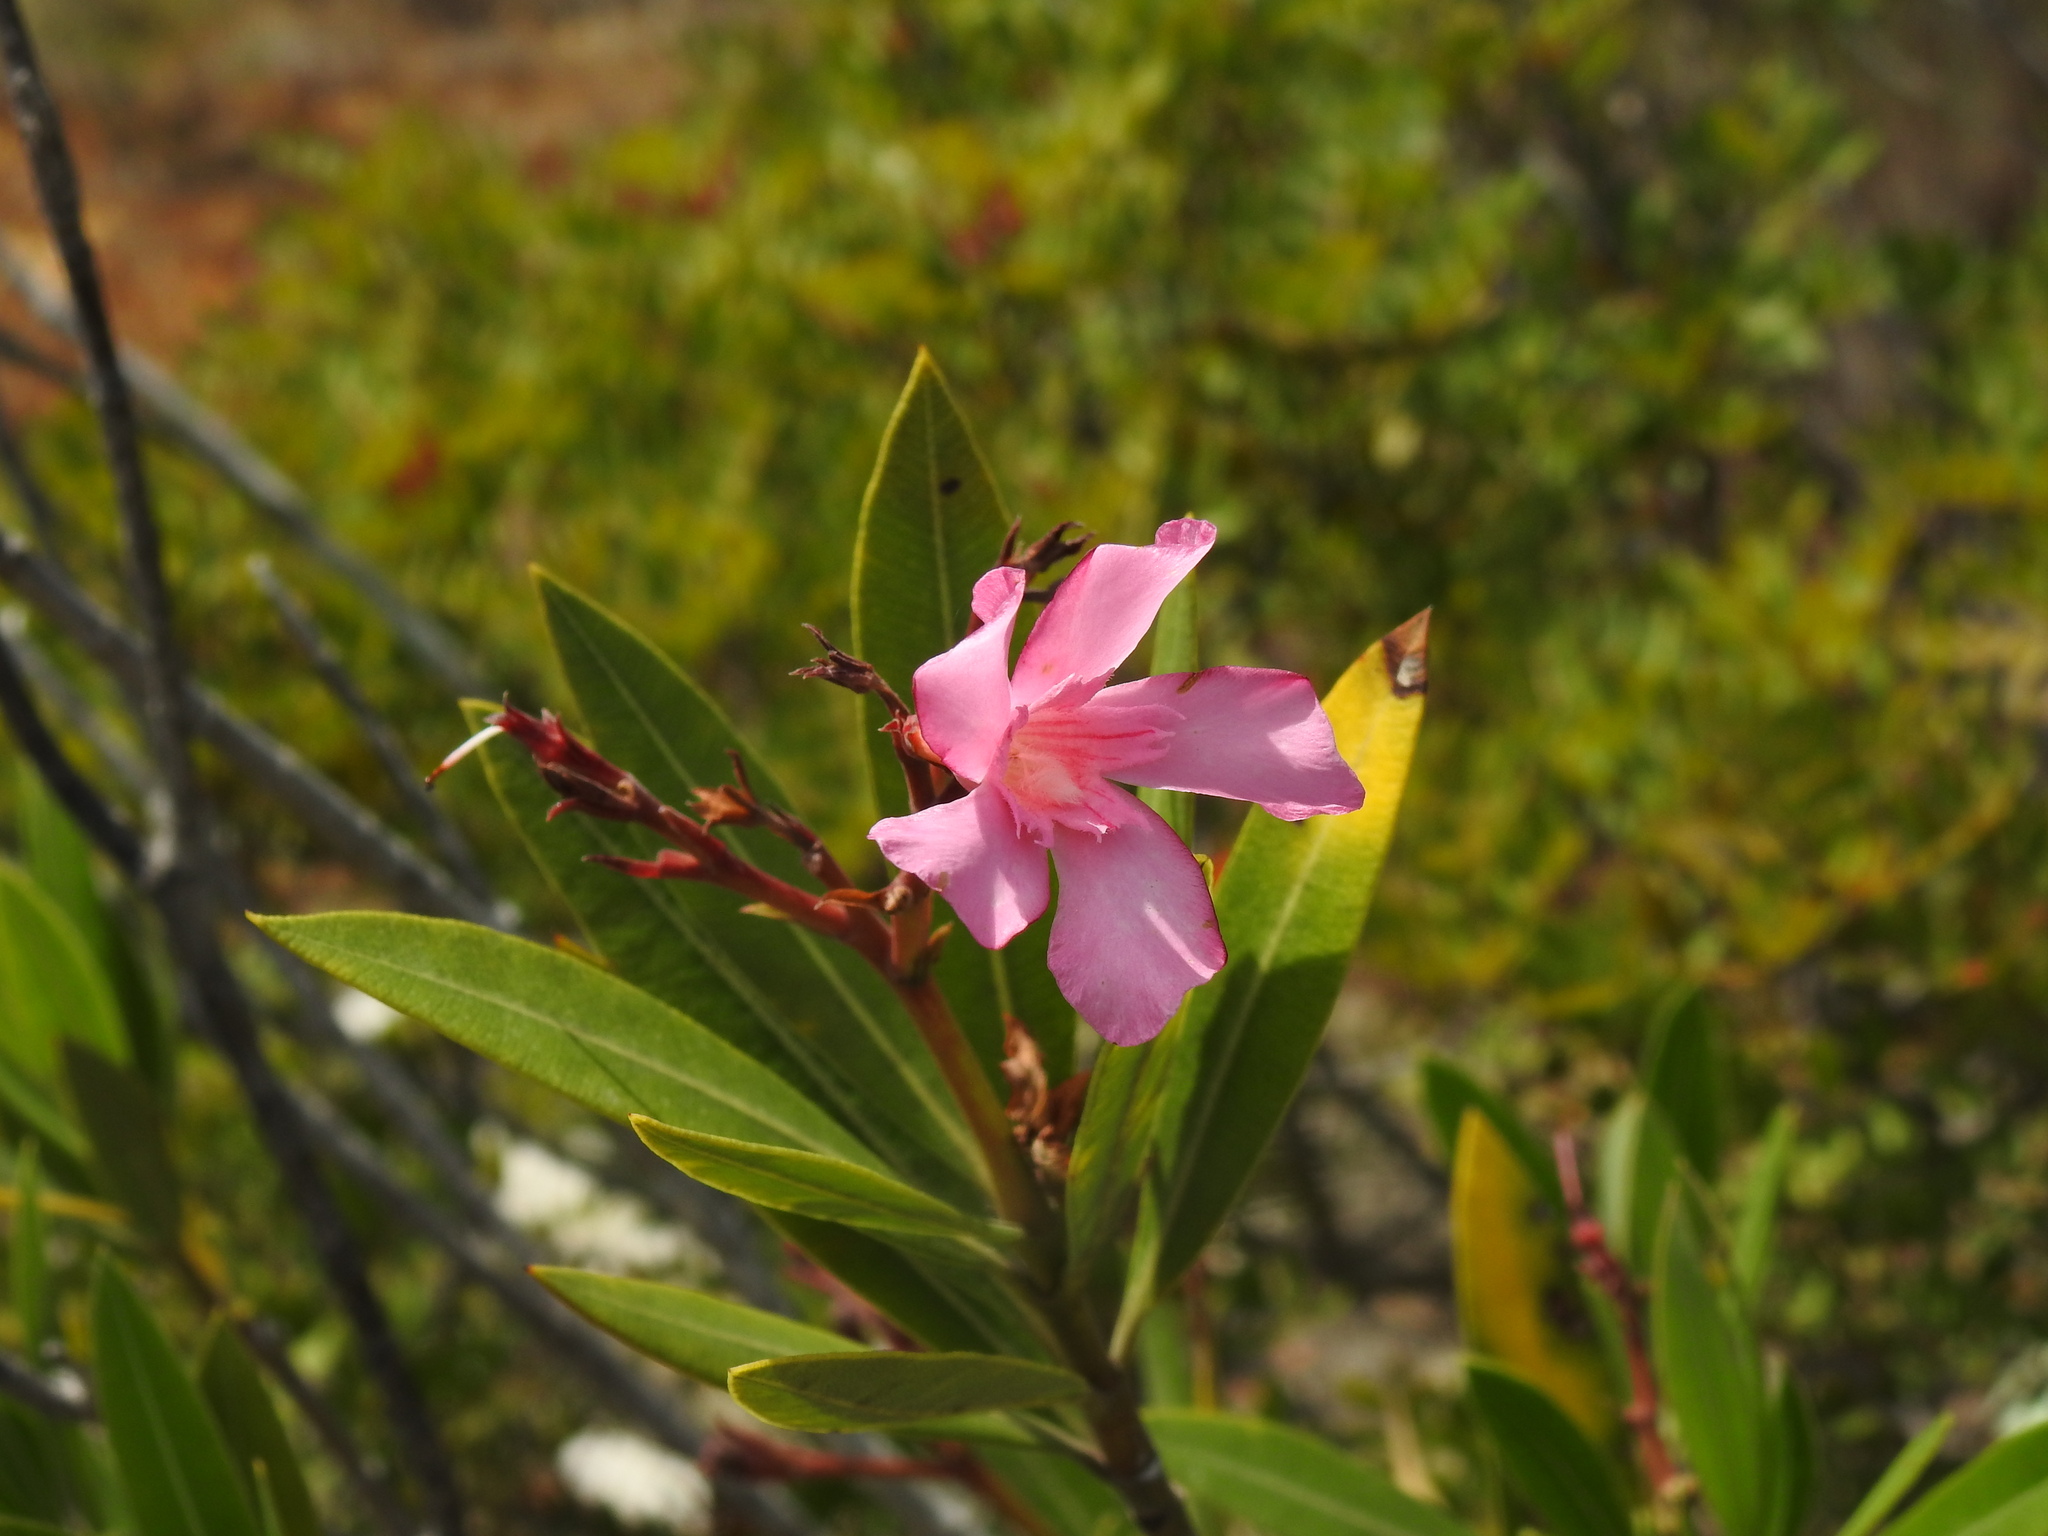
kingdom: Plantae
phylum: Tracheophyta
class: Magnoliopsida
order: Gentianales
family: Apocynaceae
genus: Nerium
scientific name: Nerium oleander
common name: Oleander
